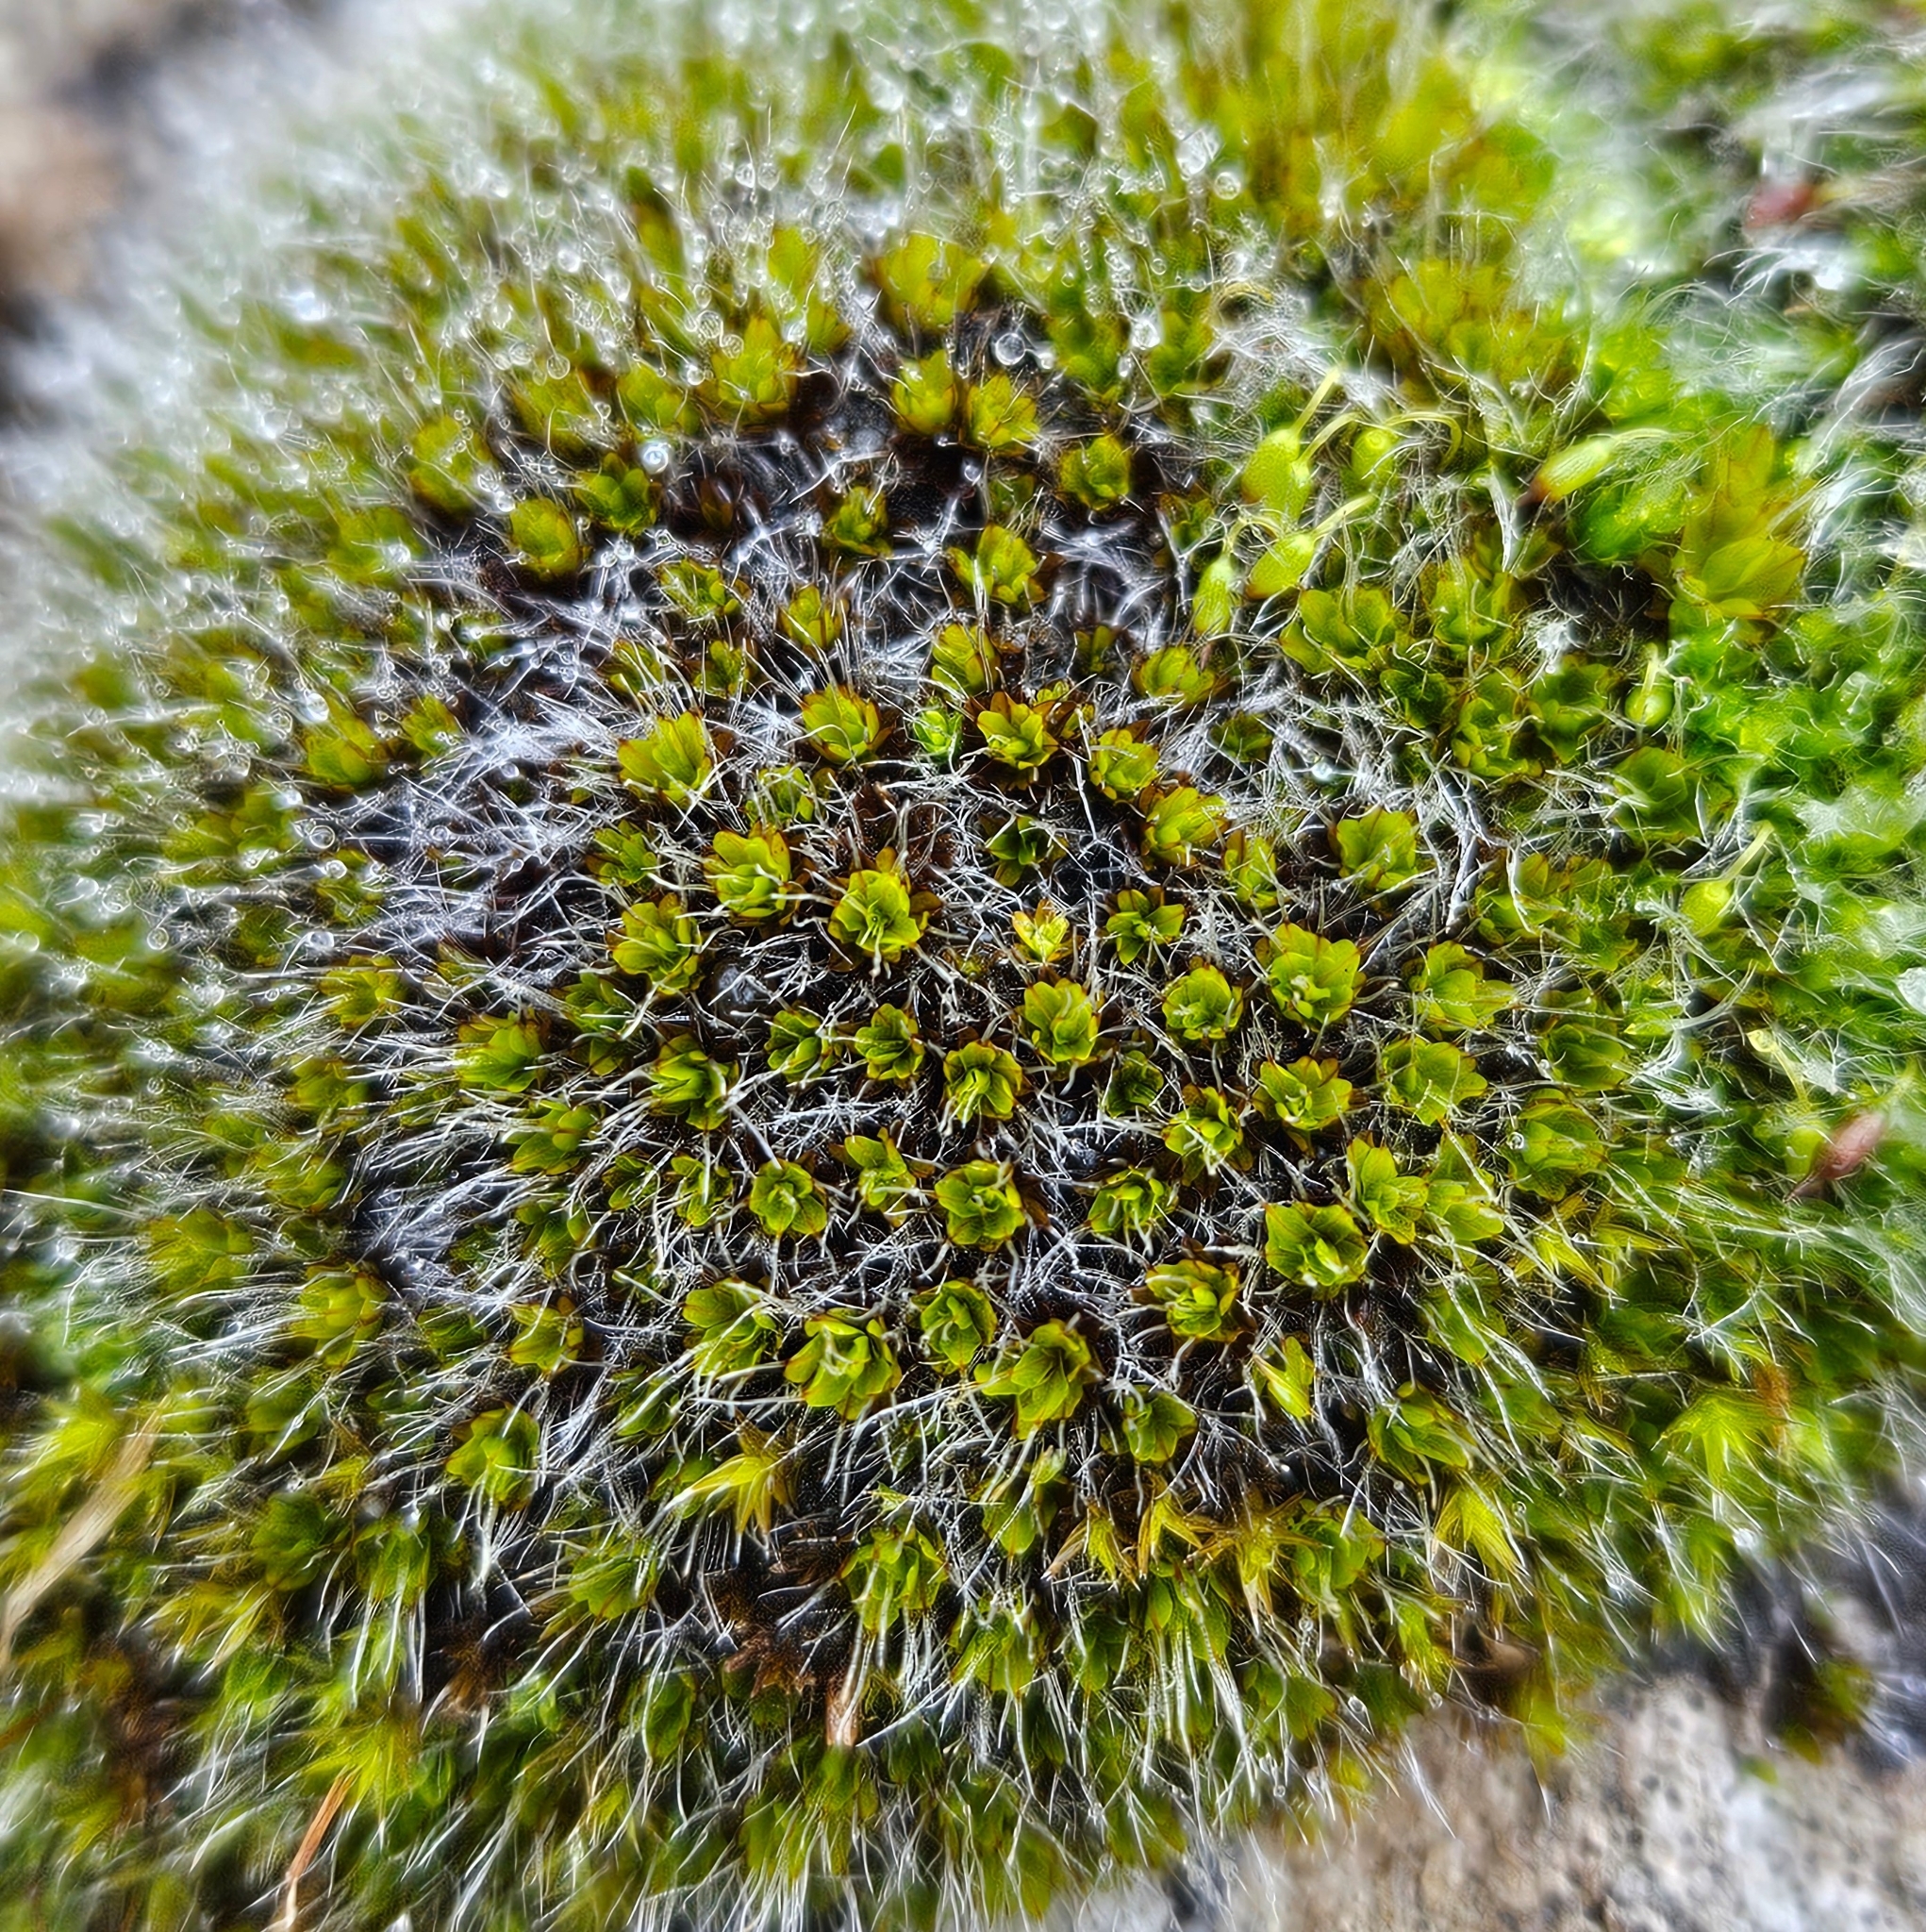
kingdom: Plantae
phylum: Bryophyta
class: Bryopsida
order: Pottiales
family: Pottiaceae
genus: Syntrichia
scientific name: Syntrichia montana
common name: Intermediate screw-moss
